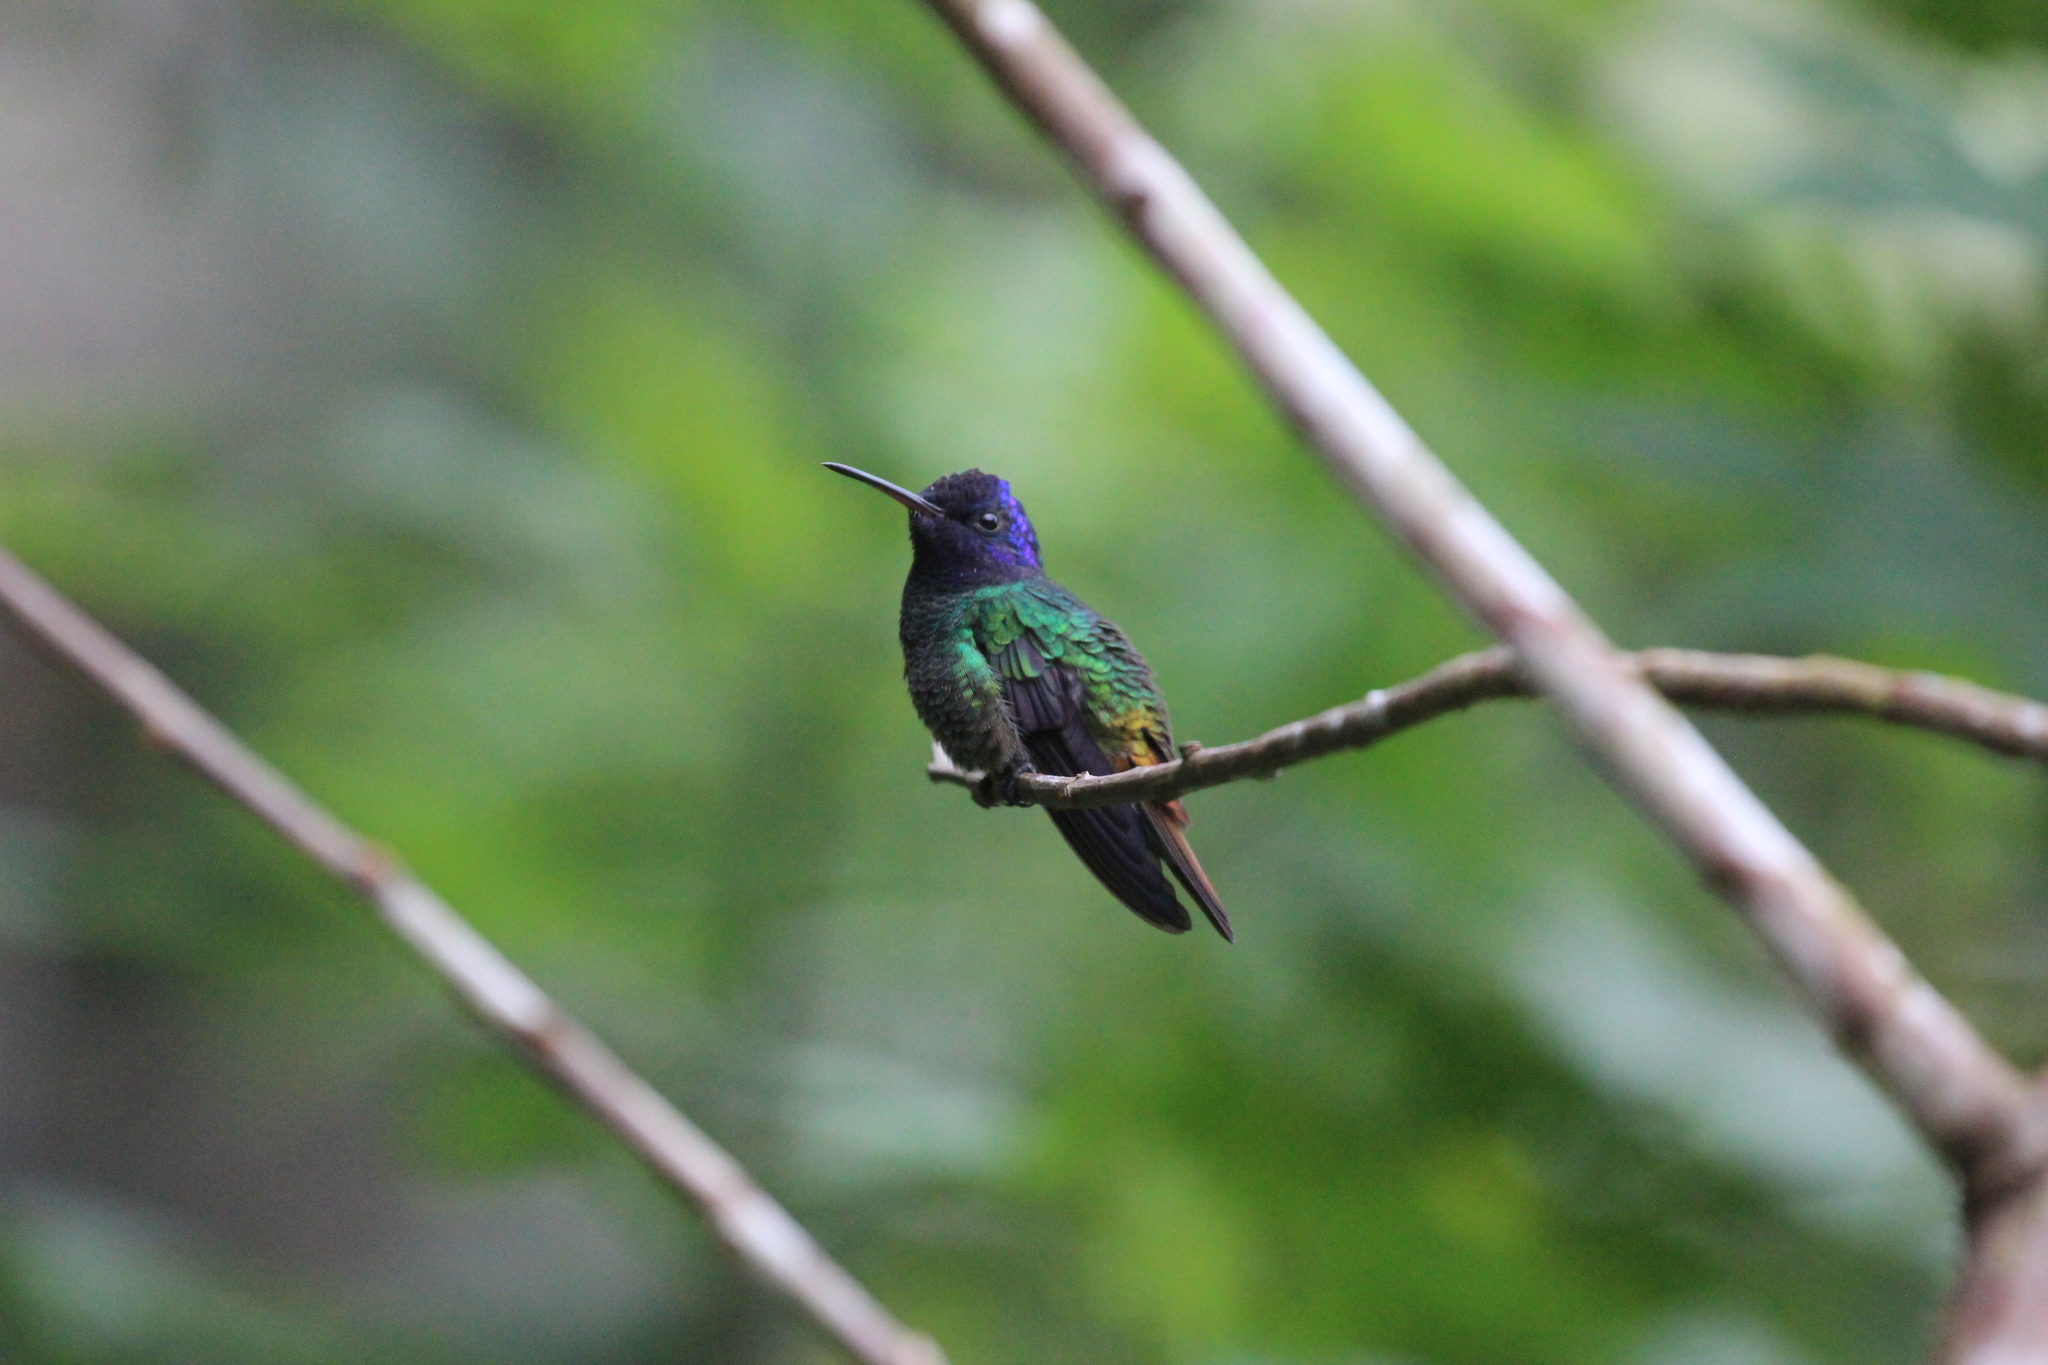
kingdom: Animalia
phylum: Chordata
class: Aves
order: Apodiformes
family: Trochilidae
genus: Chrysuronia
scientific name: Chrysuronia oenone
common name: Golden-tailed sapphire
